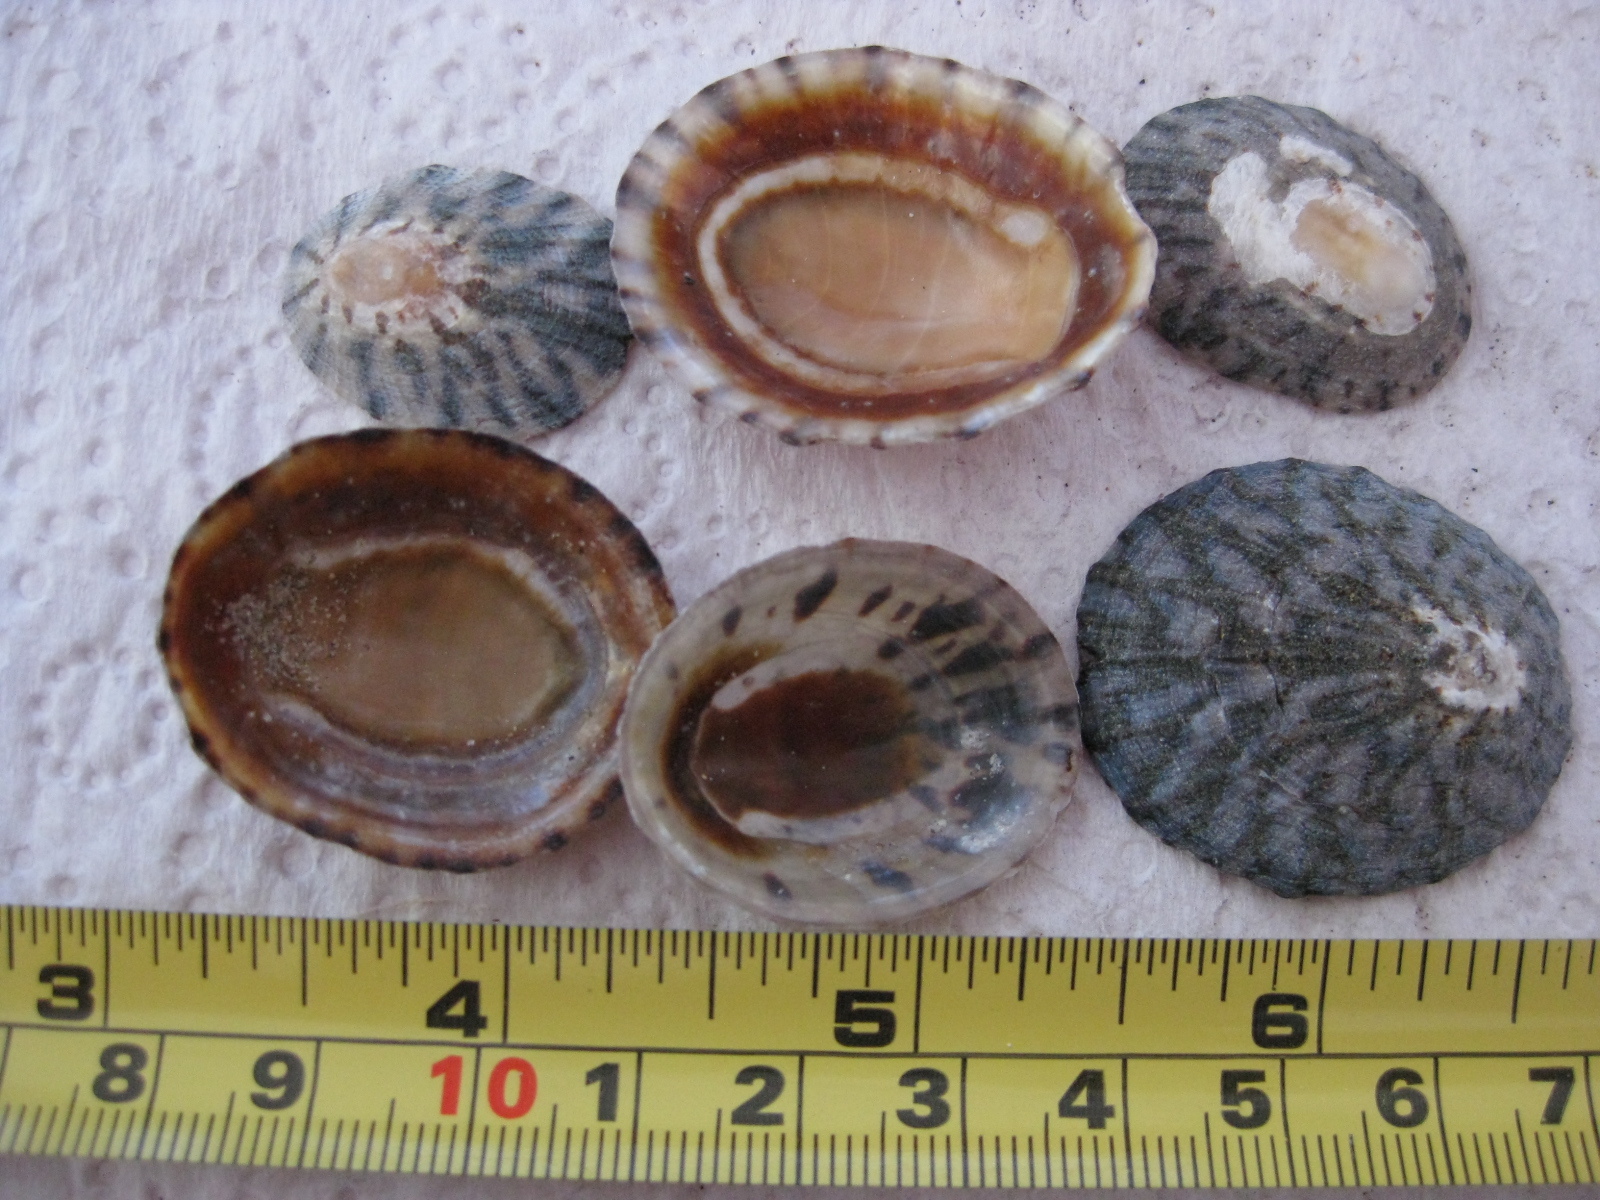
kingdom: Animalia
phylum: Mollusca
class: Gastropoda
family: Nacellidae
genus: Cellana
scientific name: Cellana radians
